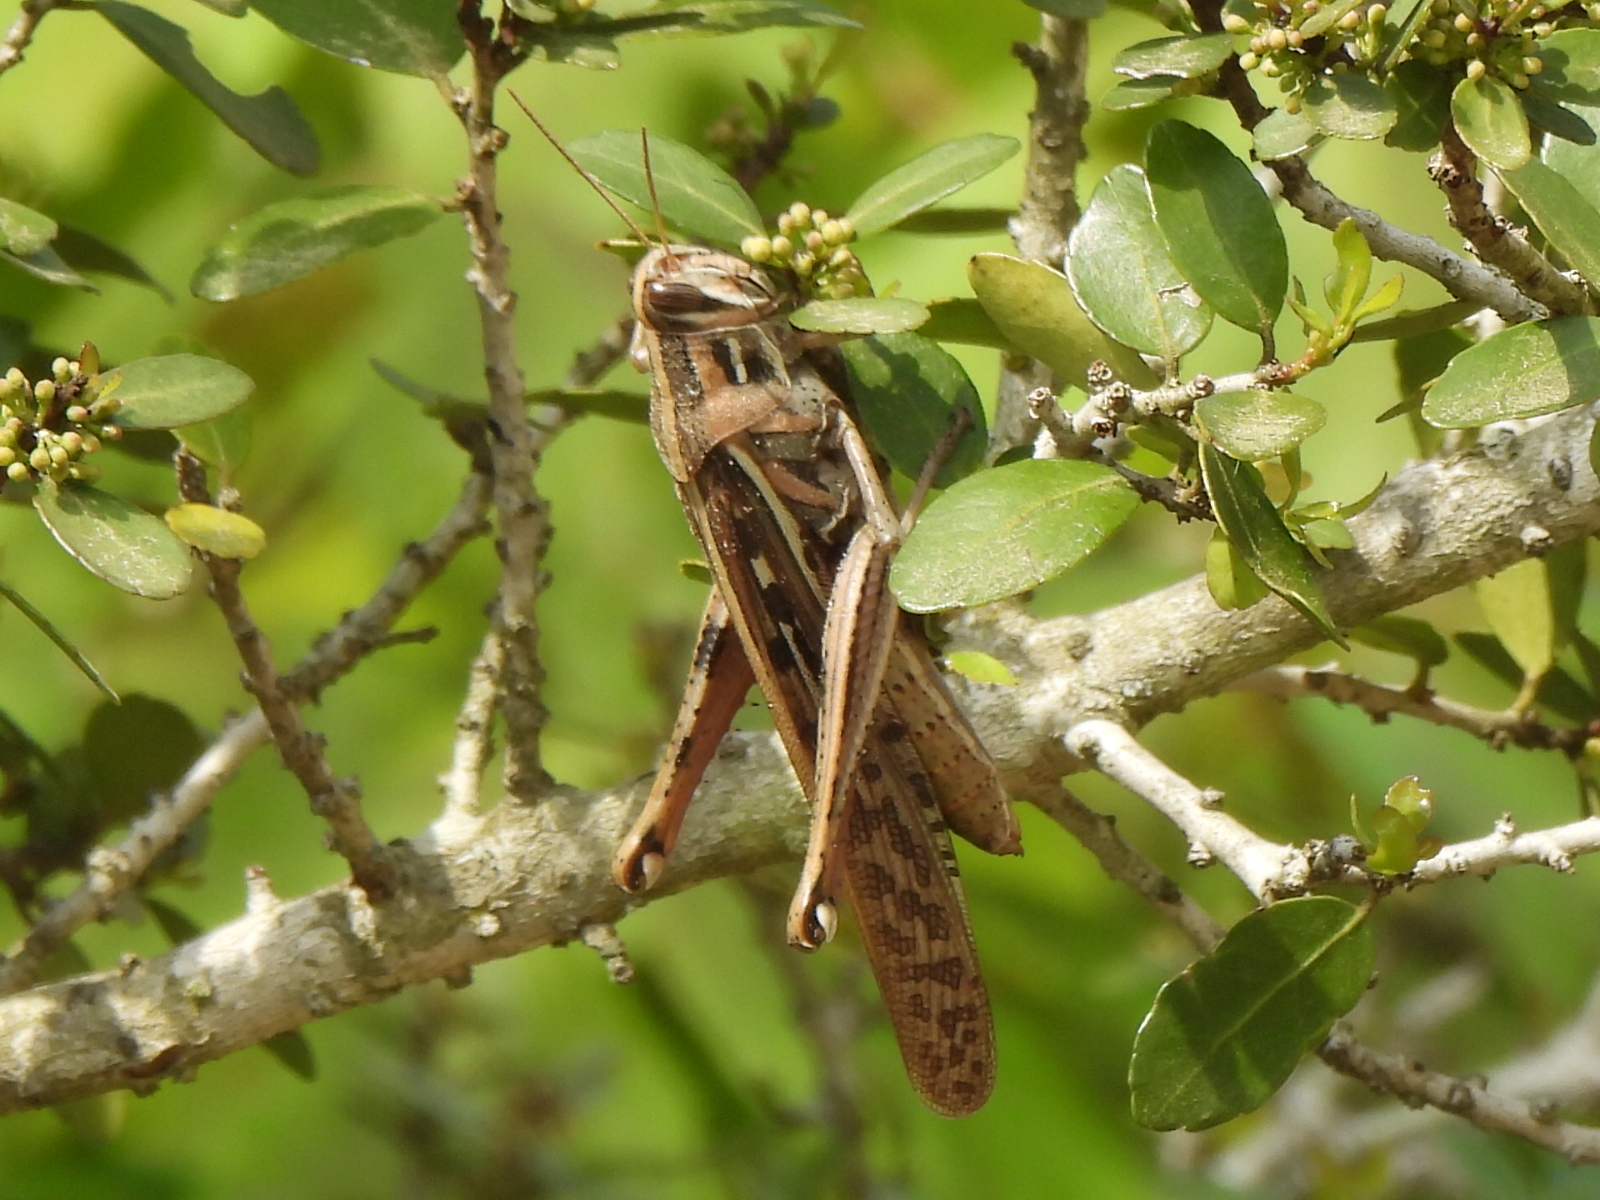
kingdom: Animalia
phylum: Arthropoda
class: Insecta
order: Orthoptera
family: Acrididae
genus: Schistocerca
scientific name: Schistocerca americana
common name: American bird locust
